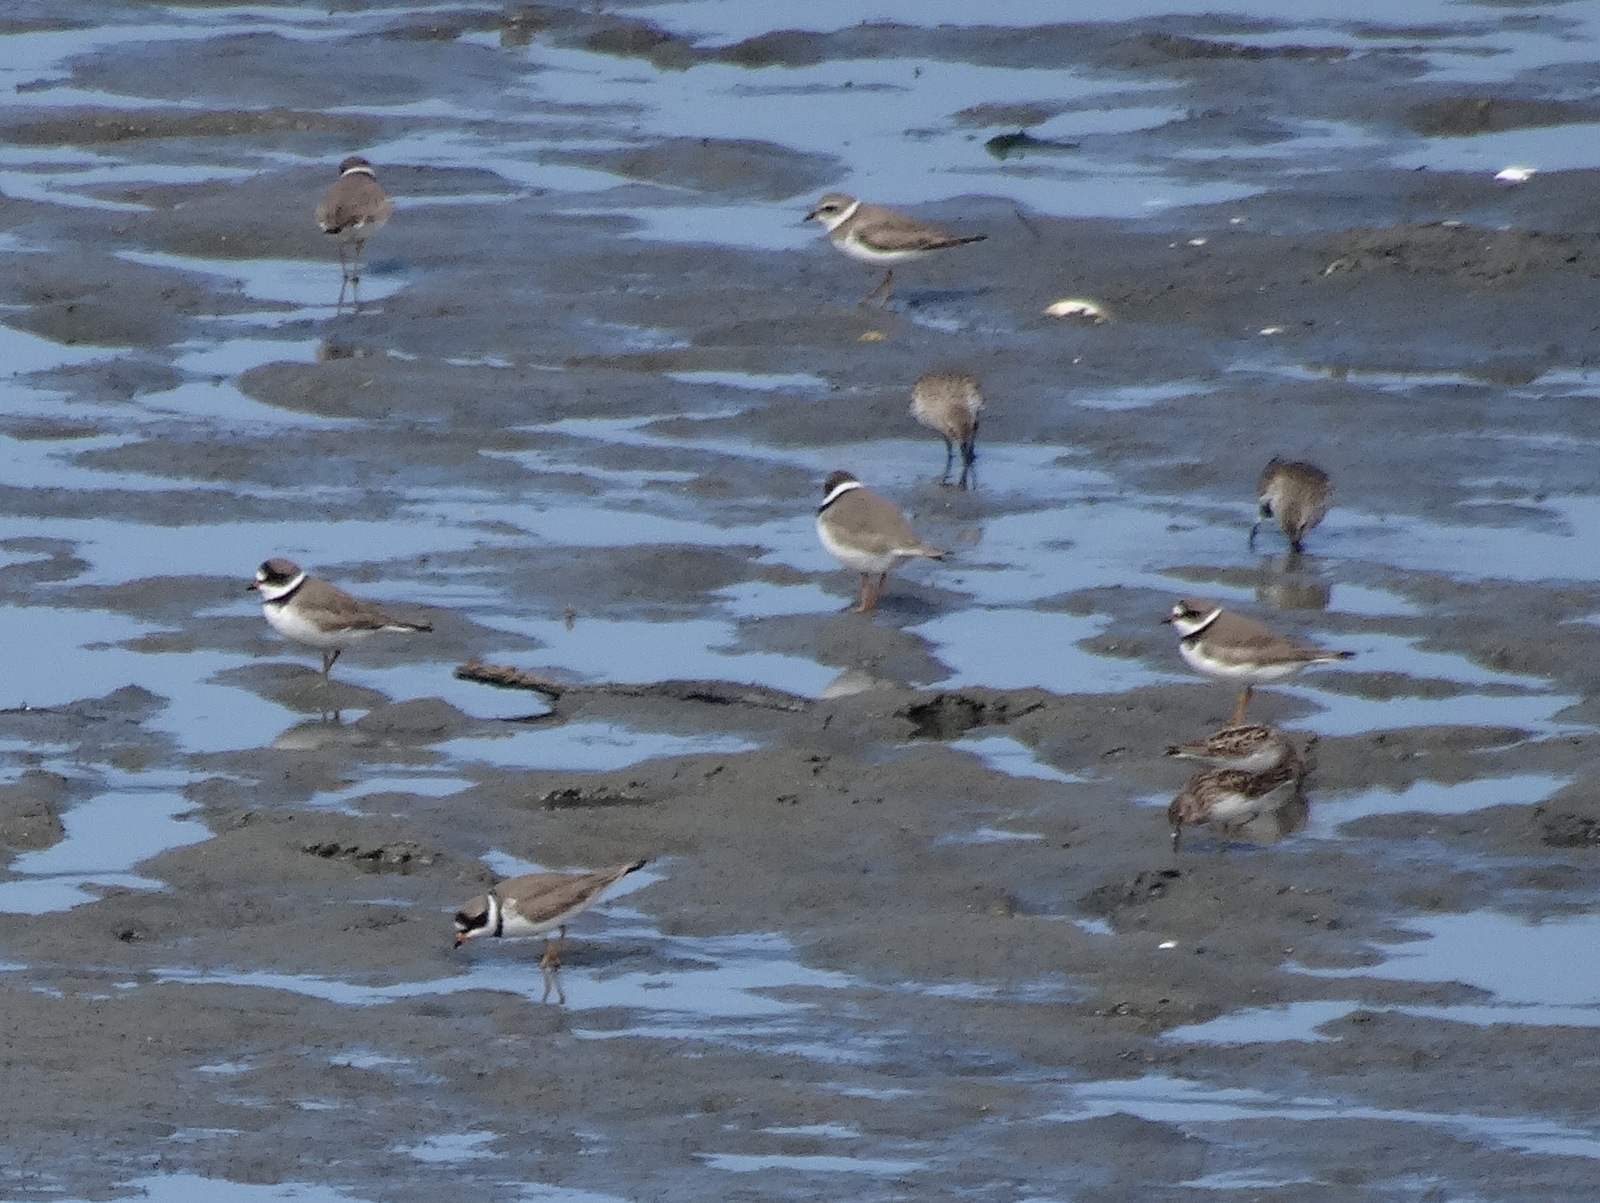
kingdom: Animalia
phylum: Chordata
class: Aves
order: Charadriiformes
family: Charadriidae
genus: Charadrius
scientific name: Charadrius semipalmatus
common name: Semipalmated plover
